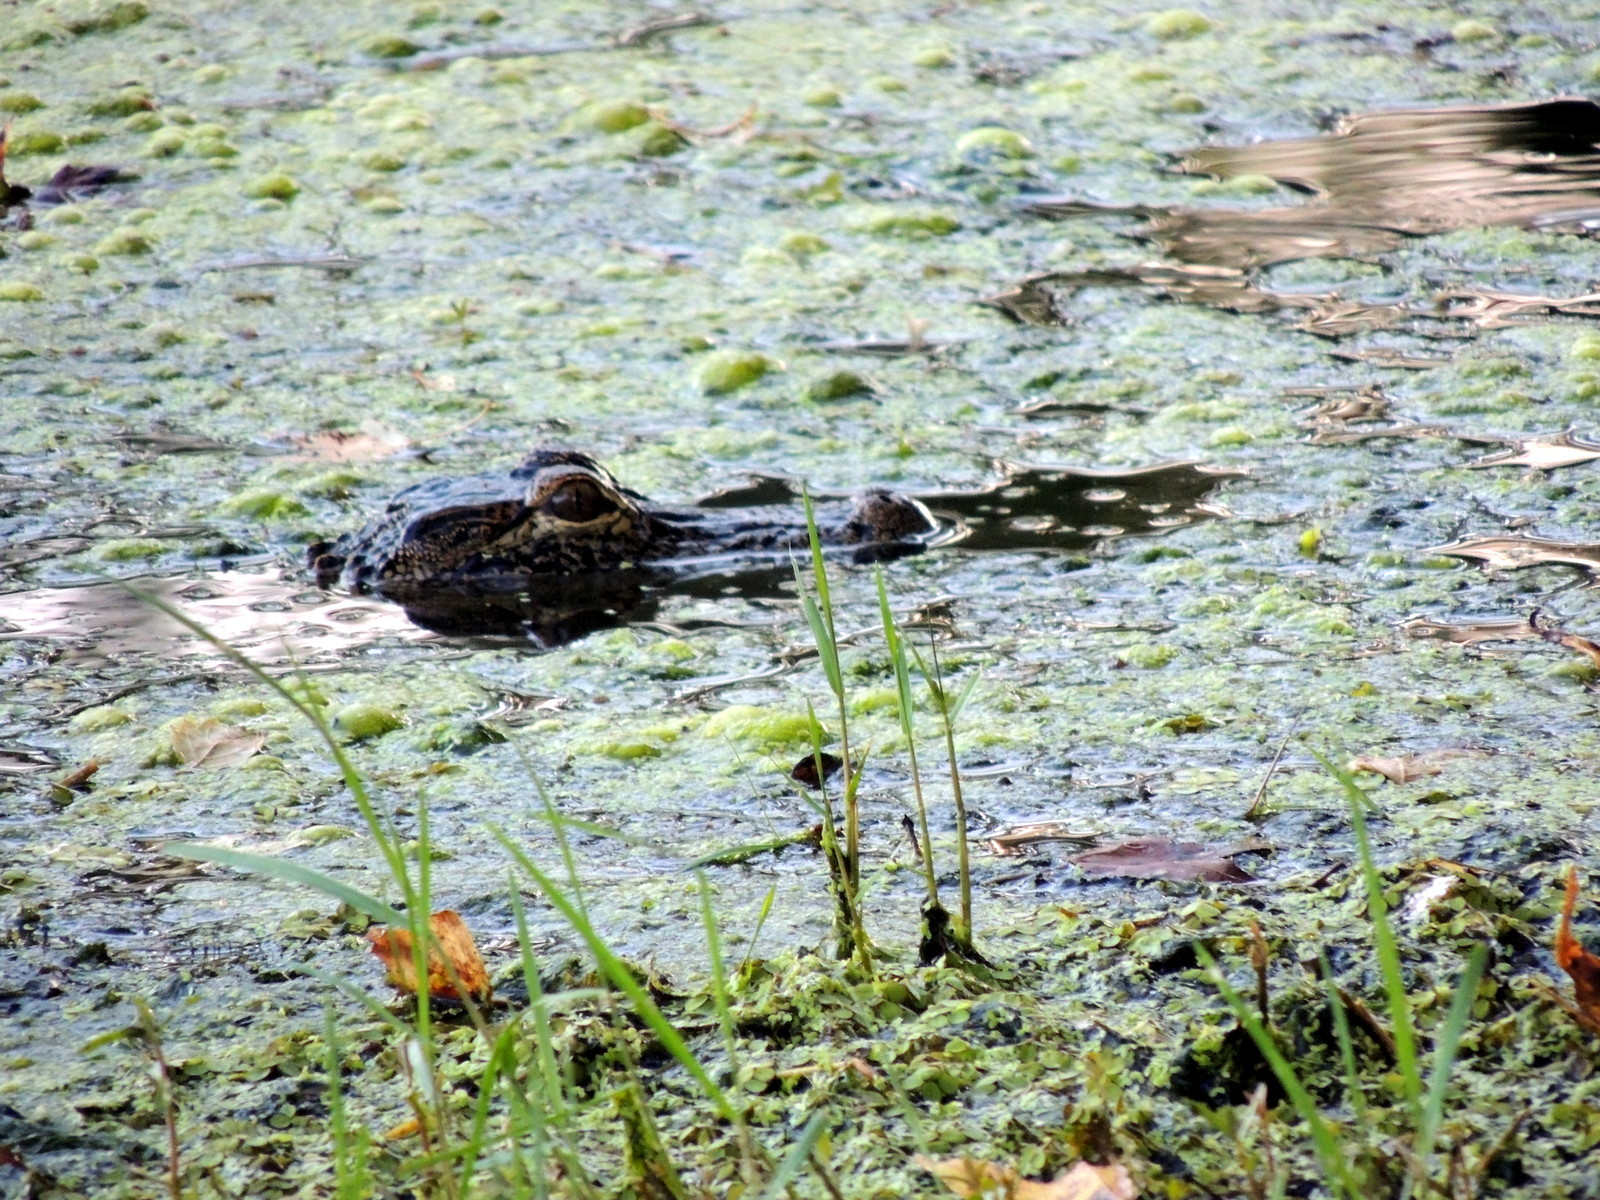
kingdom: Animalia
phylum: Chordata
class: Crocodylia
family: Alligatoridae
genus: Alligator
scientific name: Alligator mississippiensis
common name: American alligator
